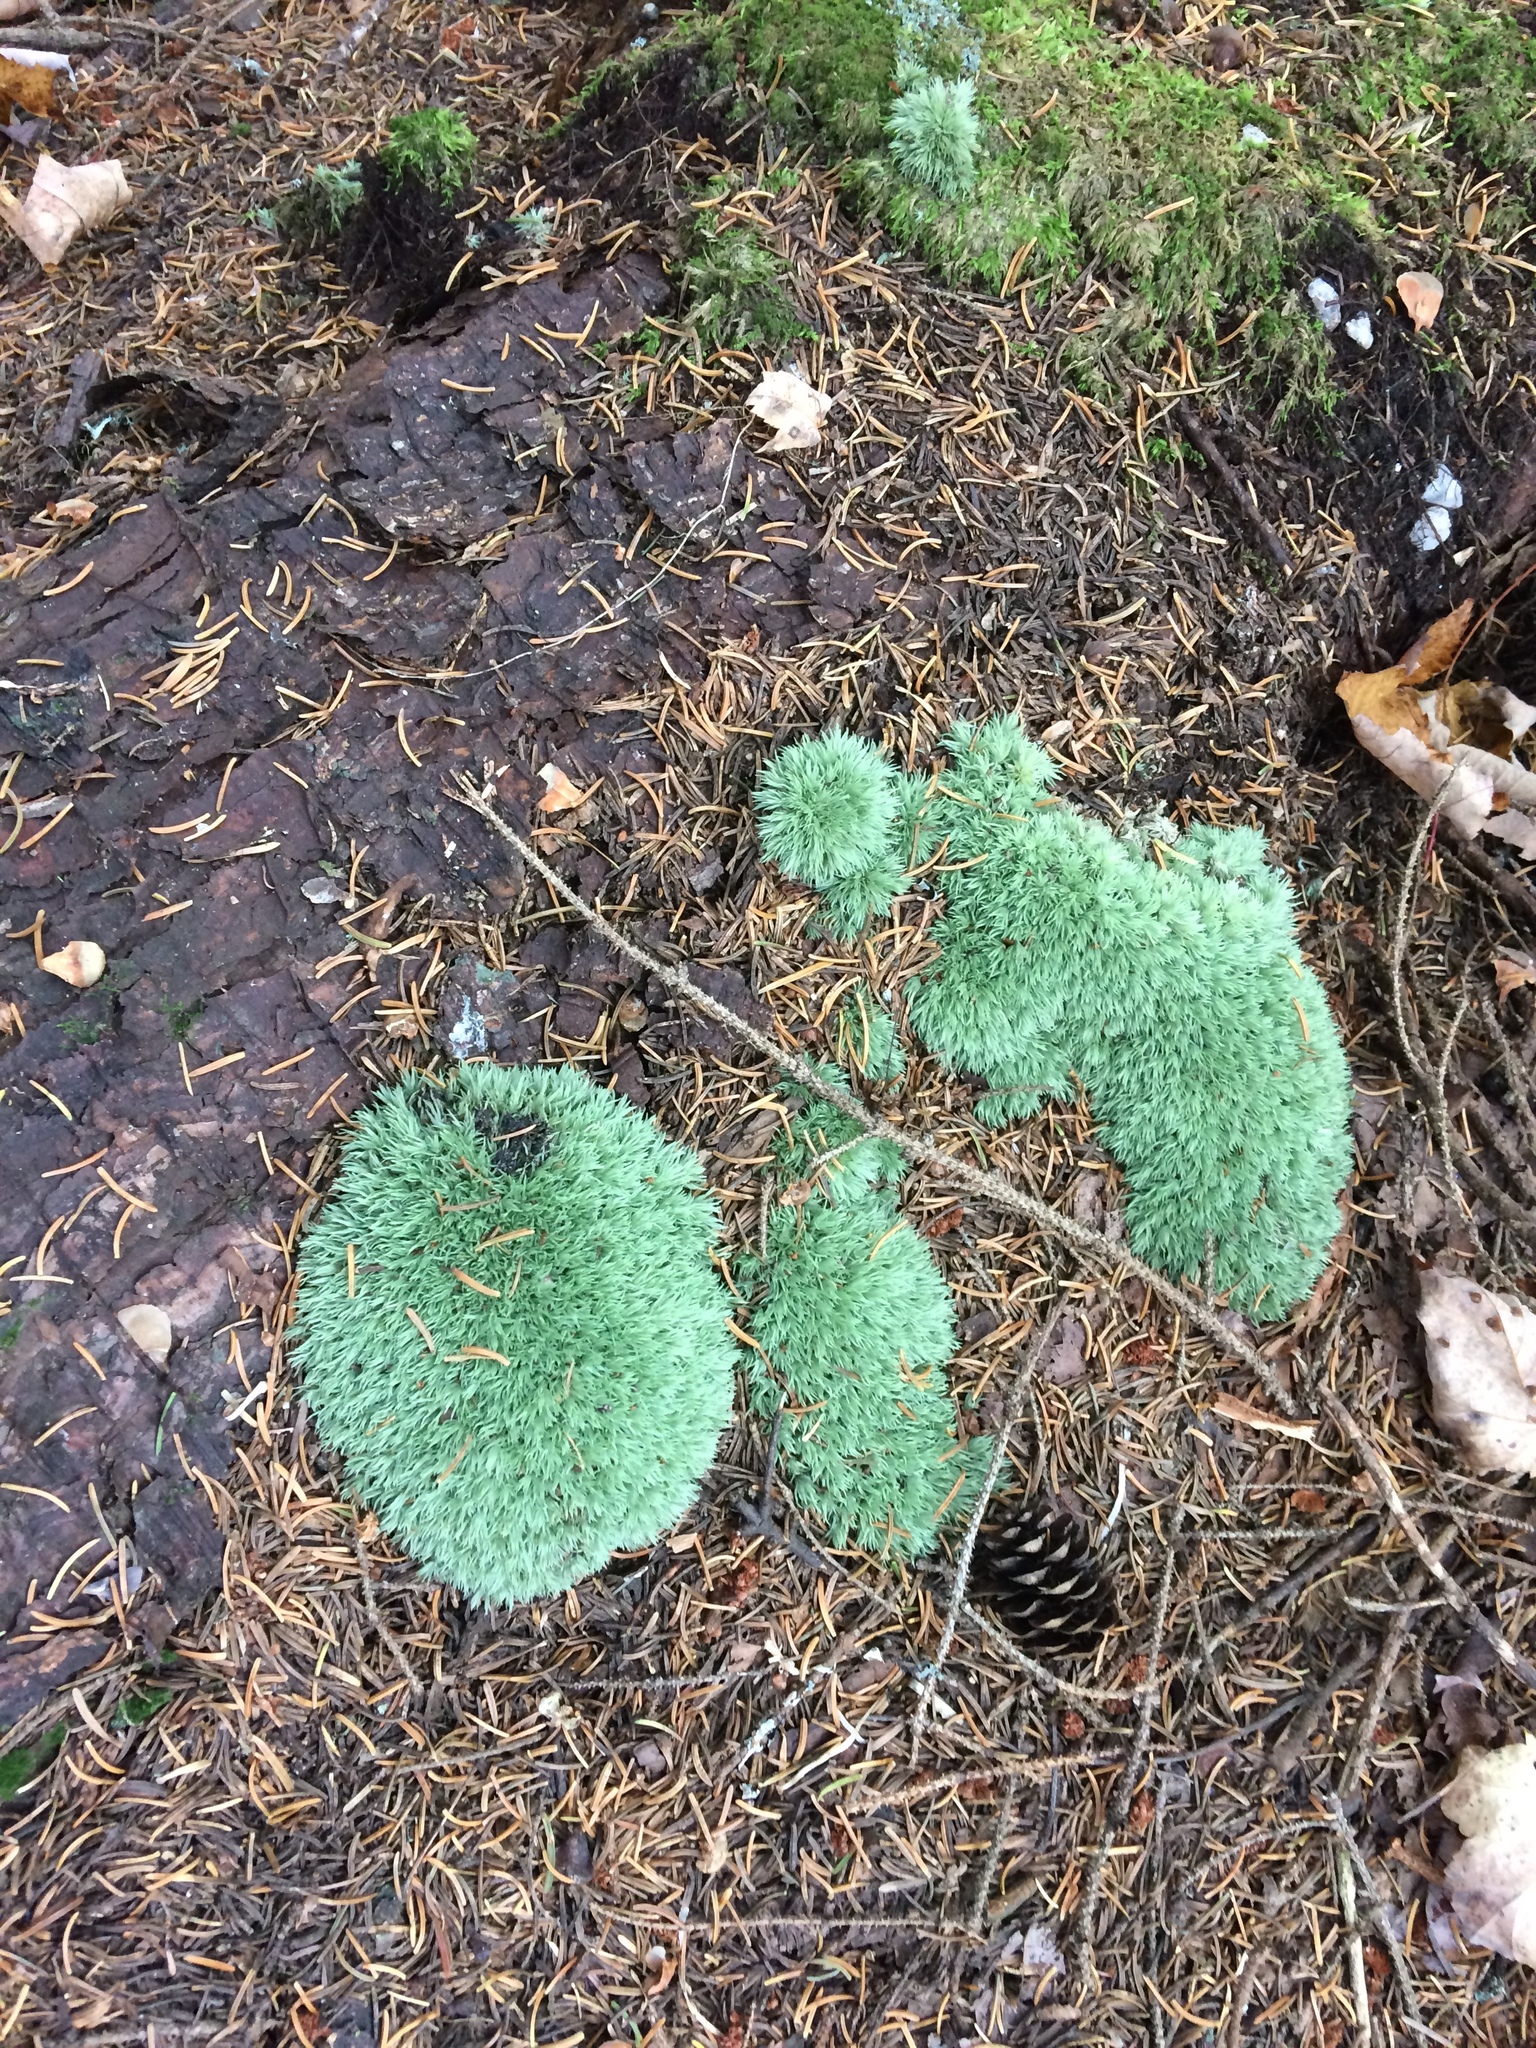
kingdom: Plantae
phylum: Bryophyta
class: Bryopsida
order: Dicranales
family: Leucobryaceae
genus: Leucobryum
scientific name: Leucobryum glaucum
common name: Large white-moss
